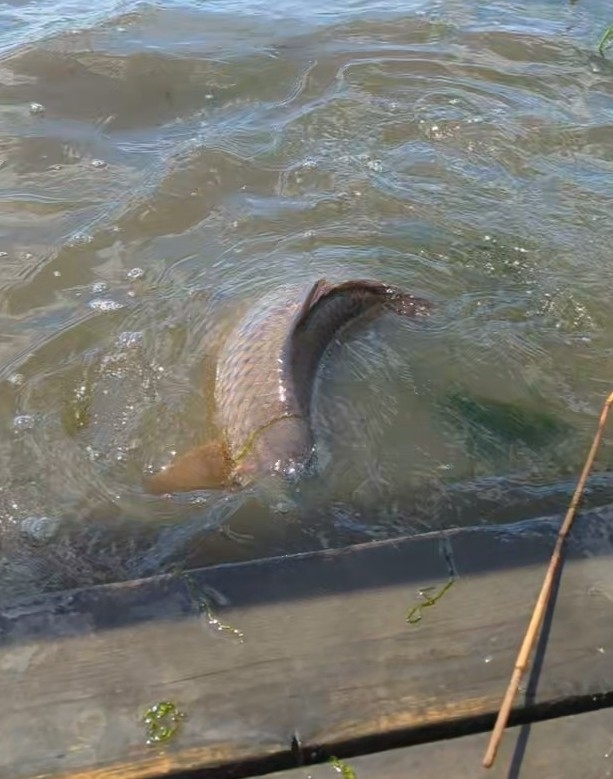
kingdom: Animalia
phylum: Chordata
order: Cypriniformes
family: Cyprinidae
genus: Cyprinus
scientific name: Cyprinus carpio
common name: Common carp
